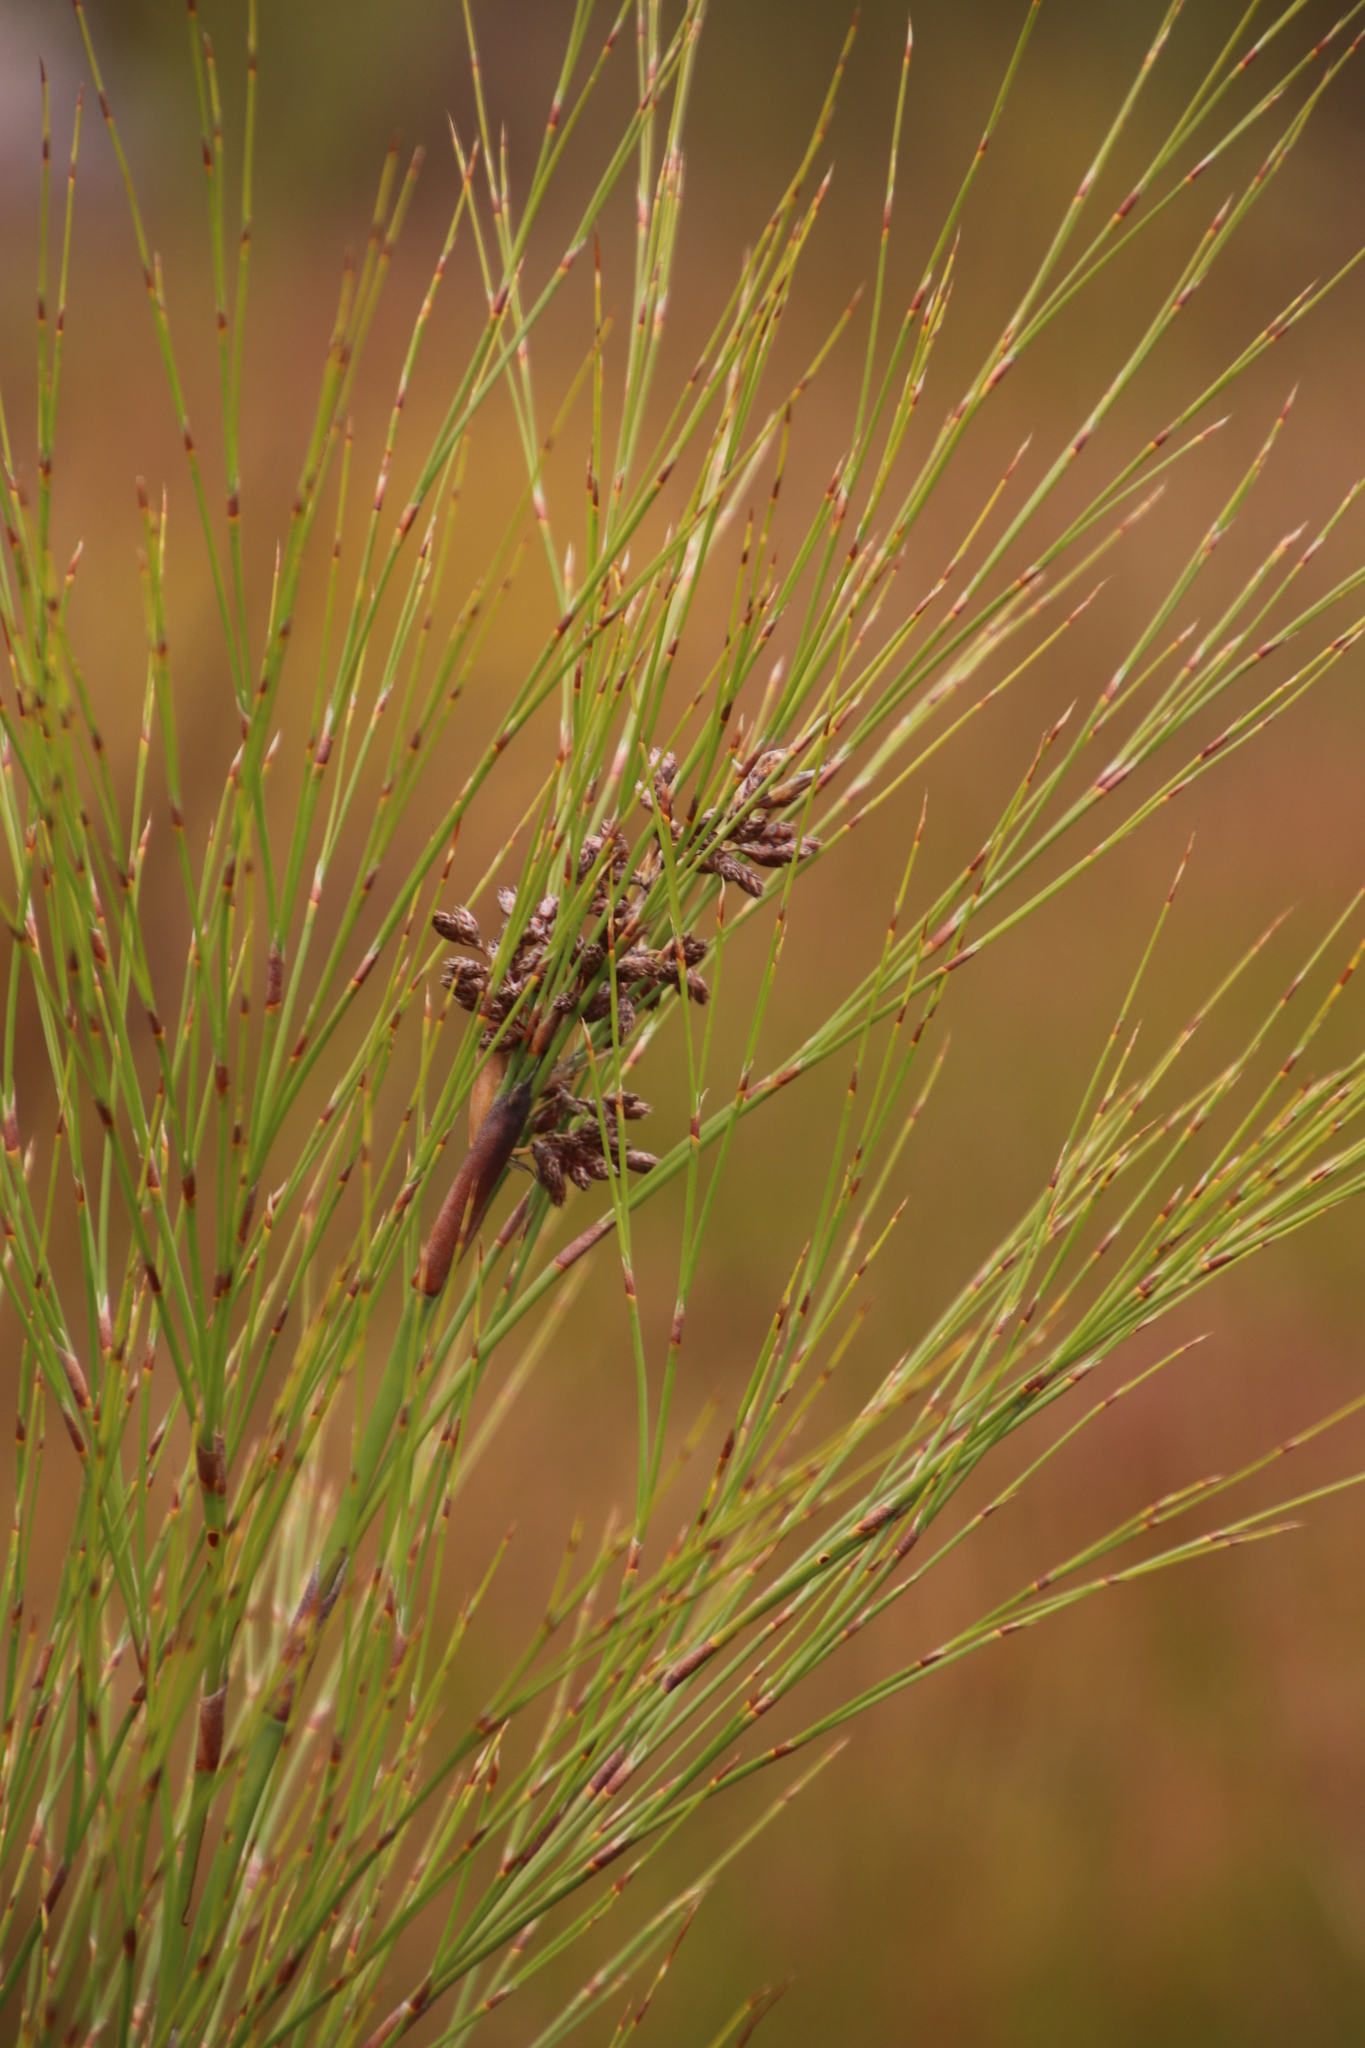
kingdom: Plantae
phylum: Tracheophyta
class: Liliopsida
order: Poales
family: Restionaceae
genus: Cannomois
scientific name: Cannomois virgata
